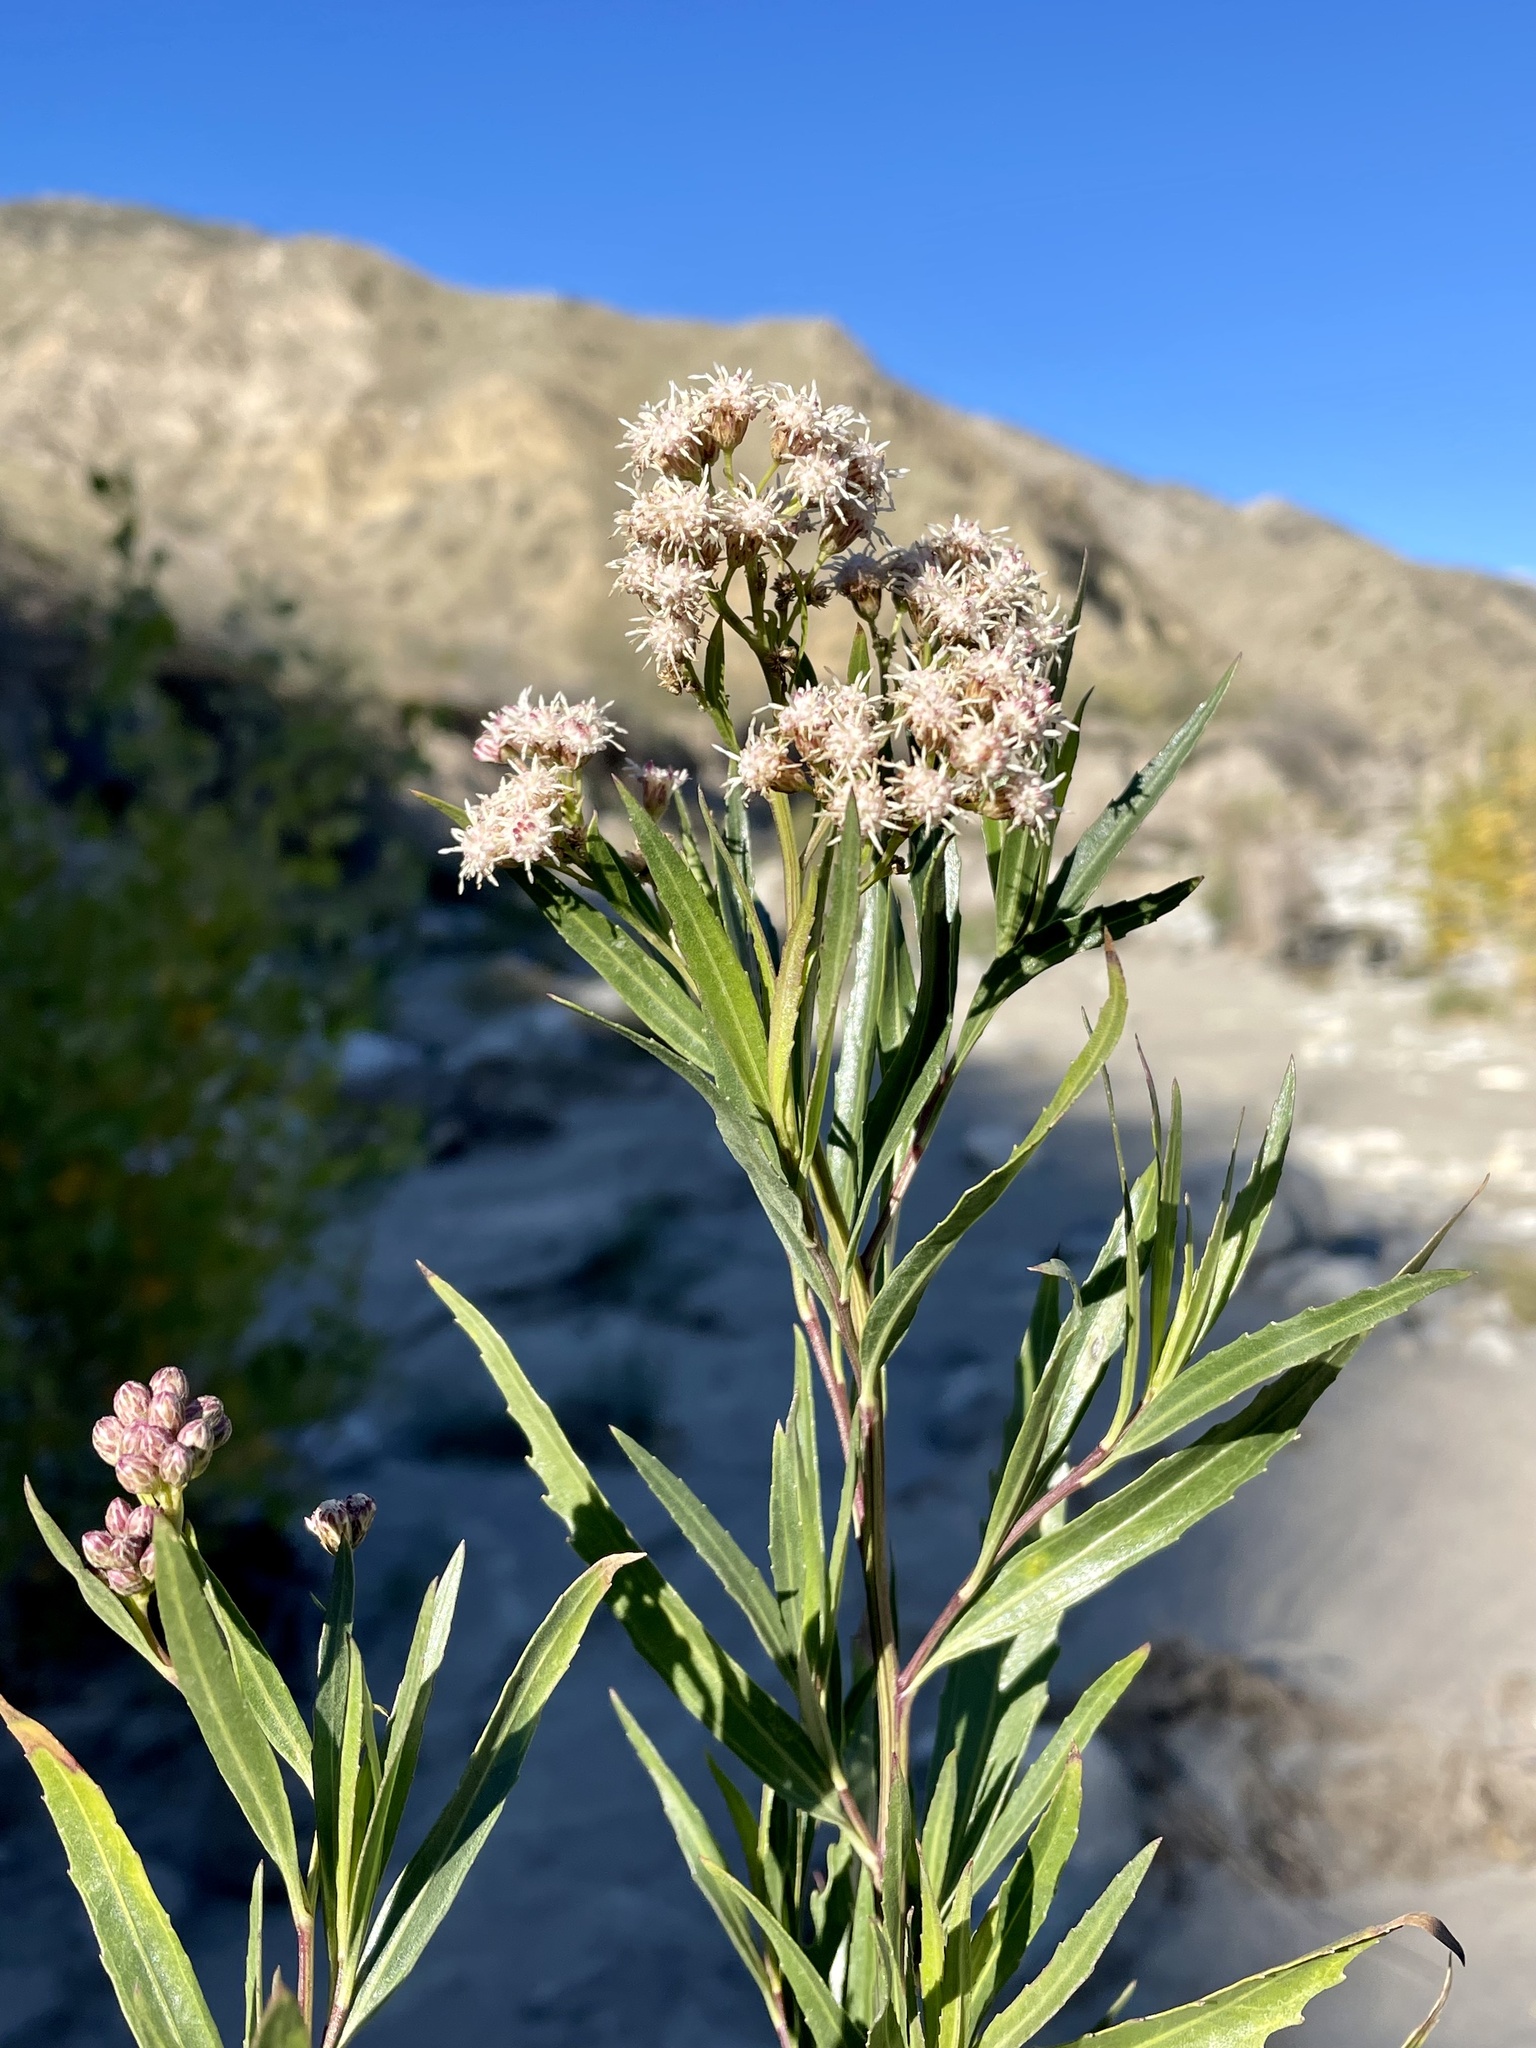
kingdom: Plantae
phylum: Tracheophyta
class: Magnoliopsida
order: Asterales
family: Asteraceae
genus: Baccharis
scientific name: Baccharis salicifolia
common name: Sticky baccharis
